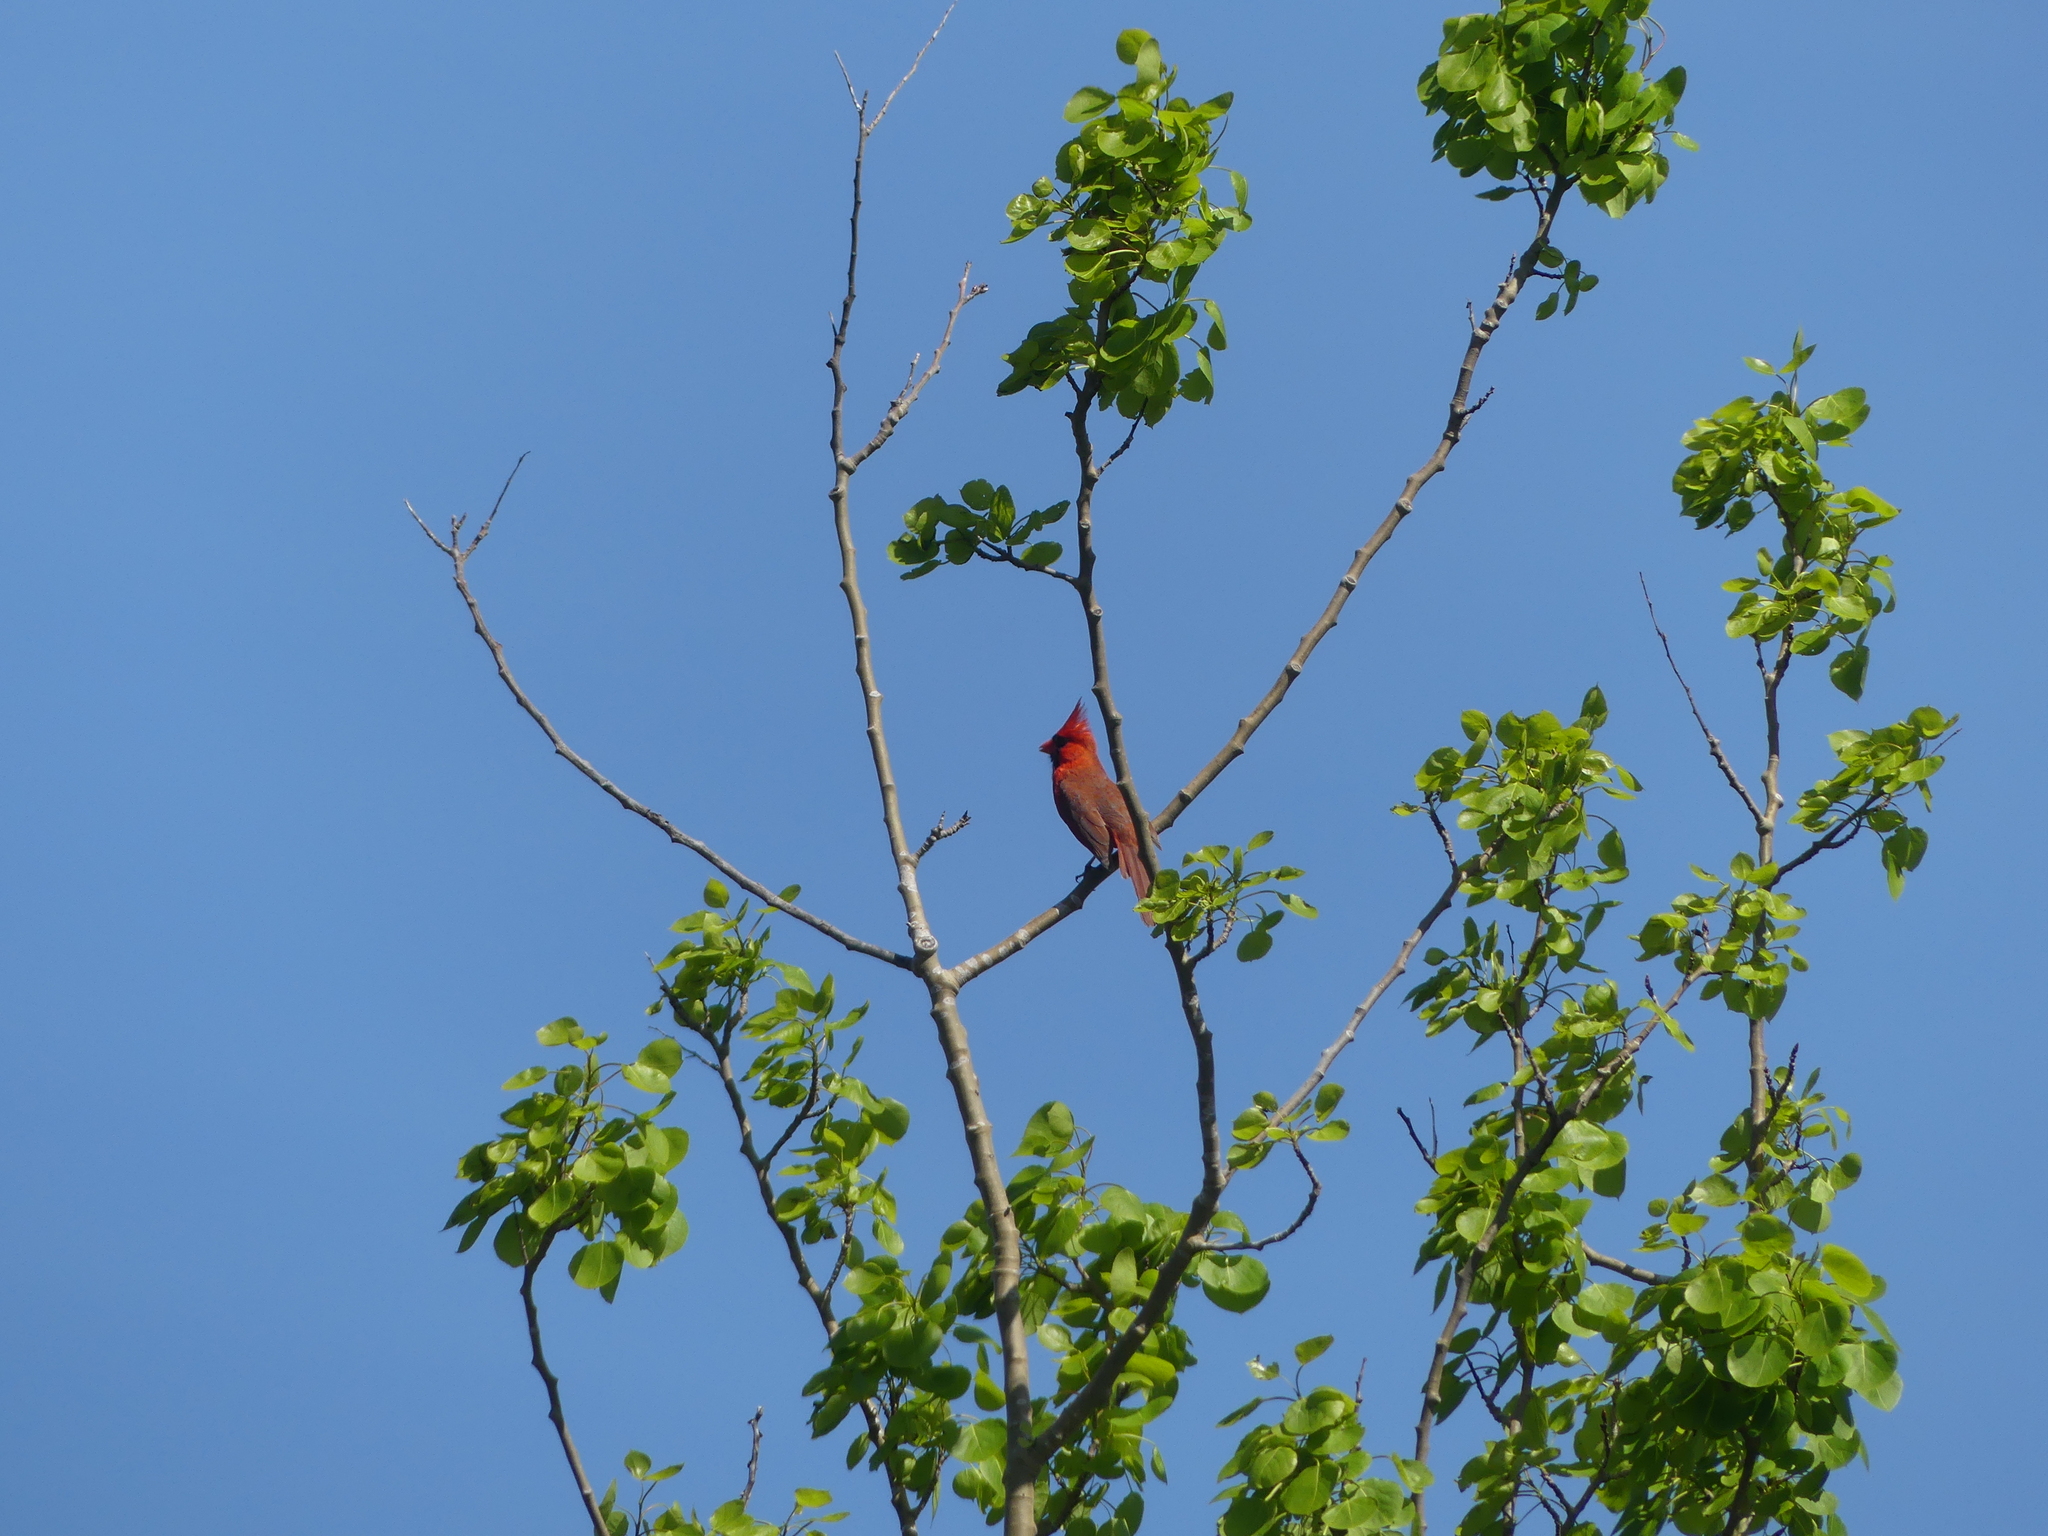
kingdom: Animalia
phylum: Chordata
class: Aves
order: Passeriformes
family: Cardinalidae
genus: Cardinalis
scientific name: Cardinalis cardinalis
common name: Northern cardinal
